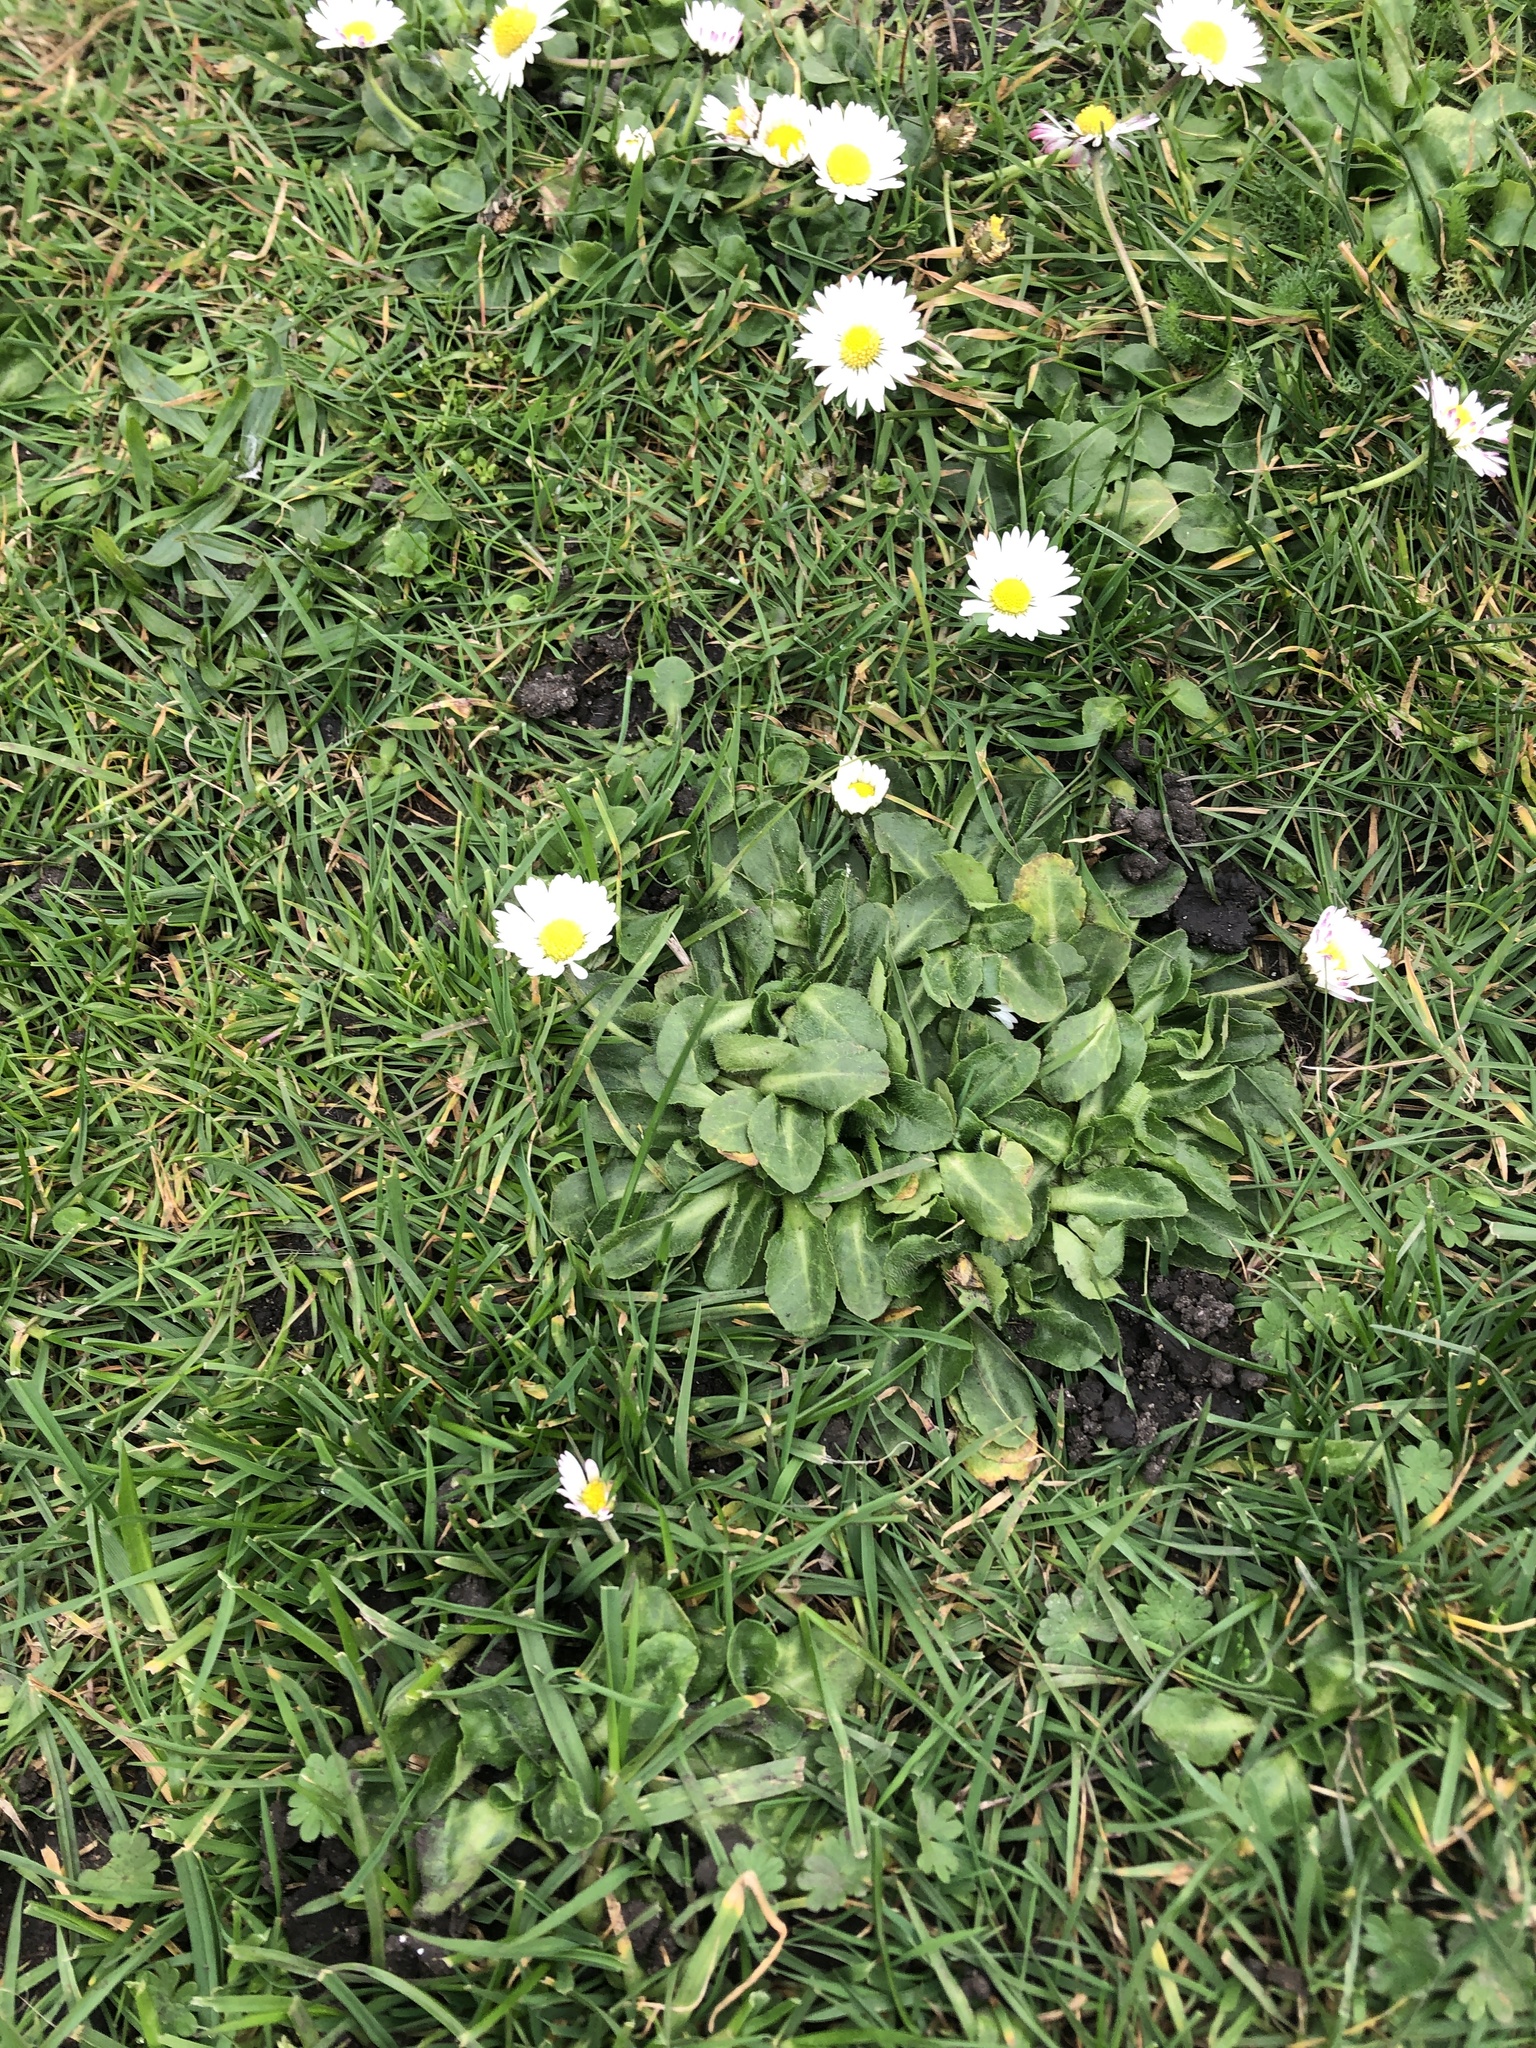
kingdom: Plantae
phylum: Tracheophyta
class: Magnoliopsida
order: Asterales
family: Asteraceae
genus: Bellis
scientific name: Bellis perennis
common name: Lawndaisy
